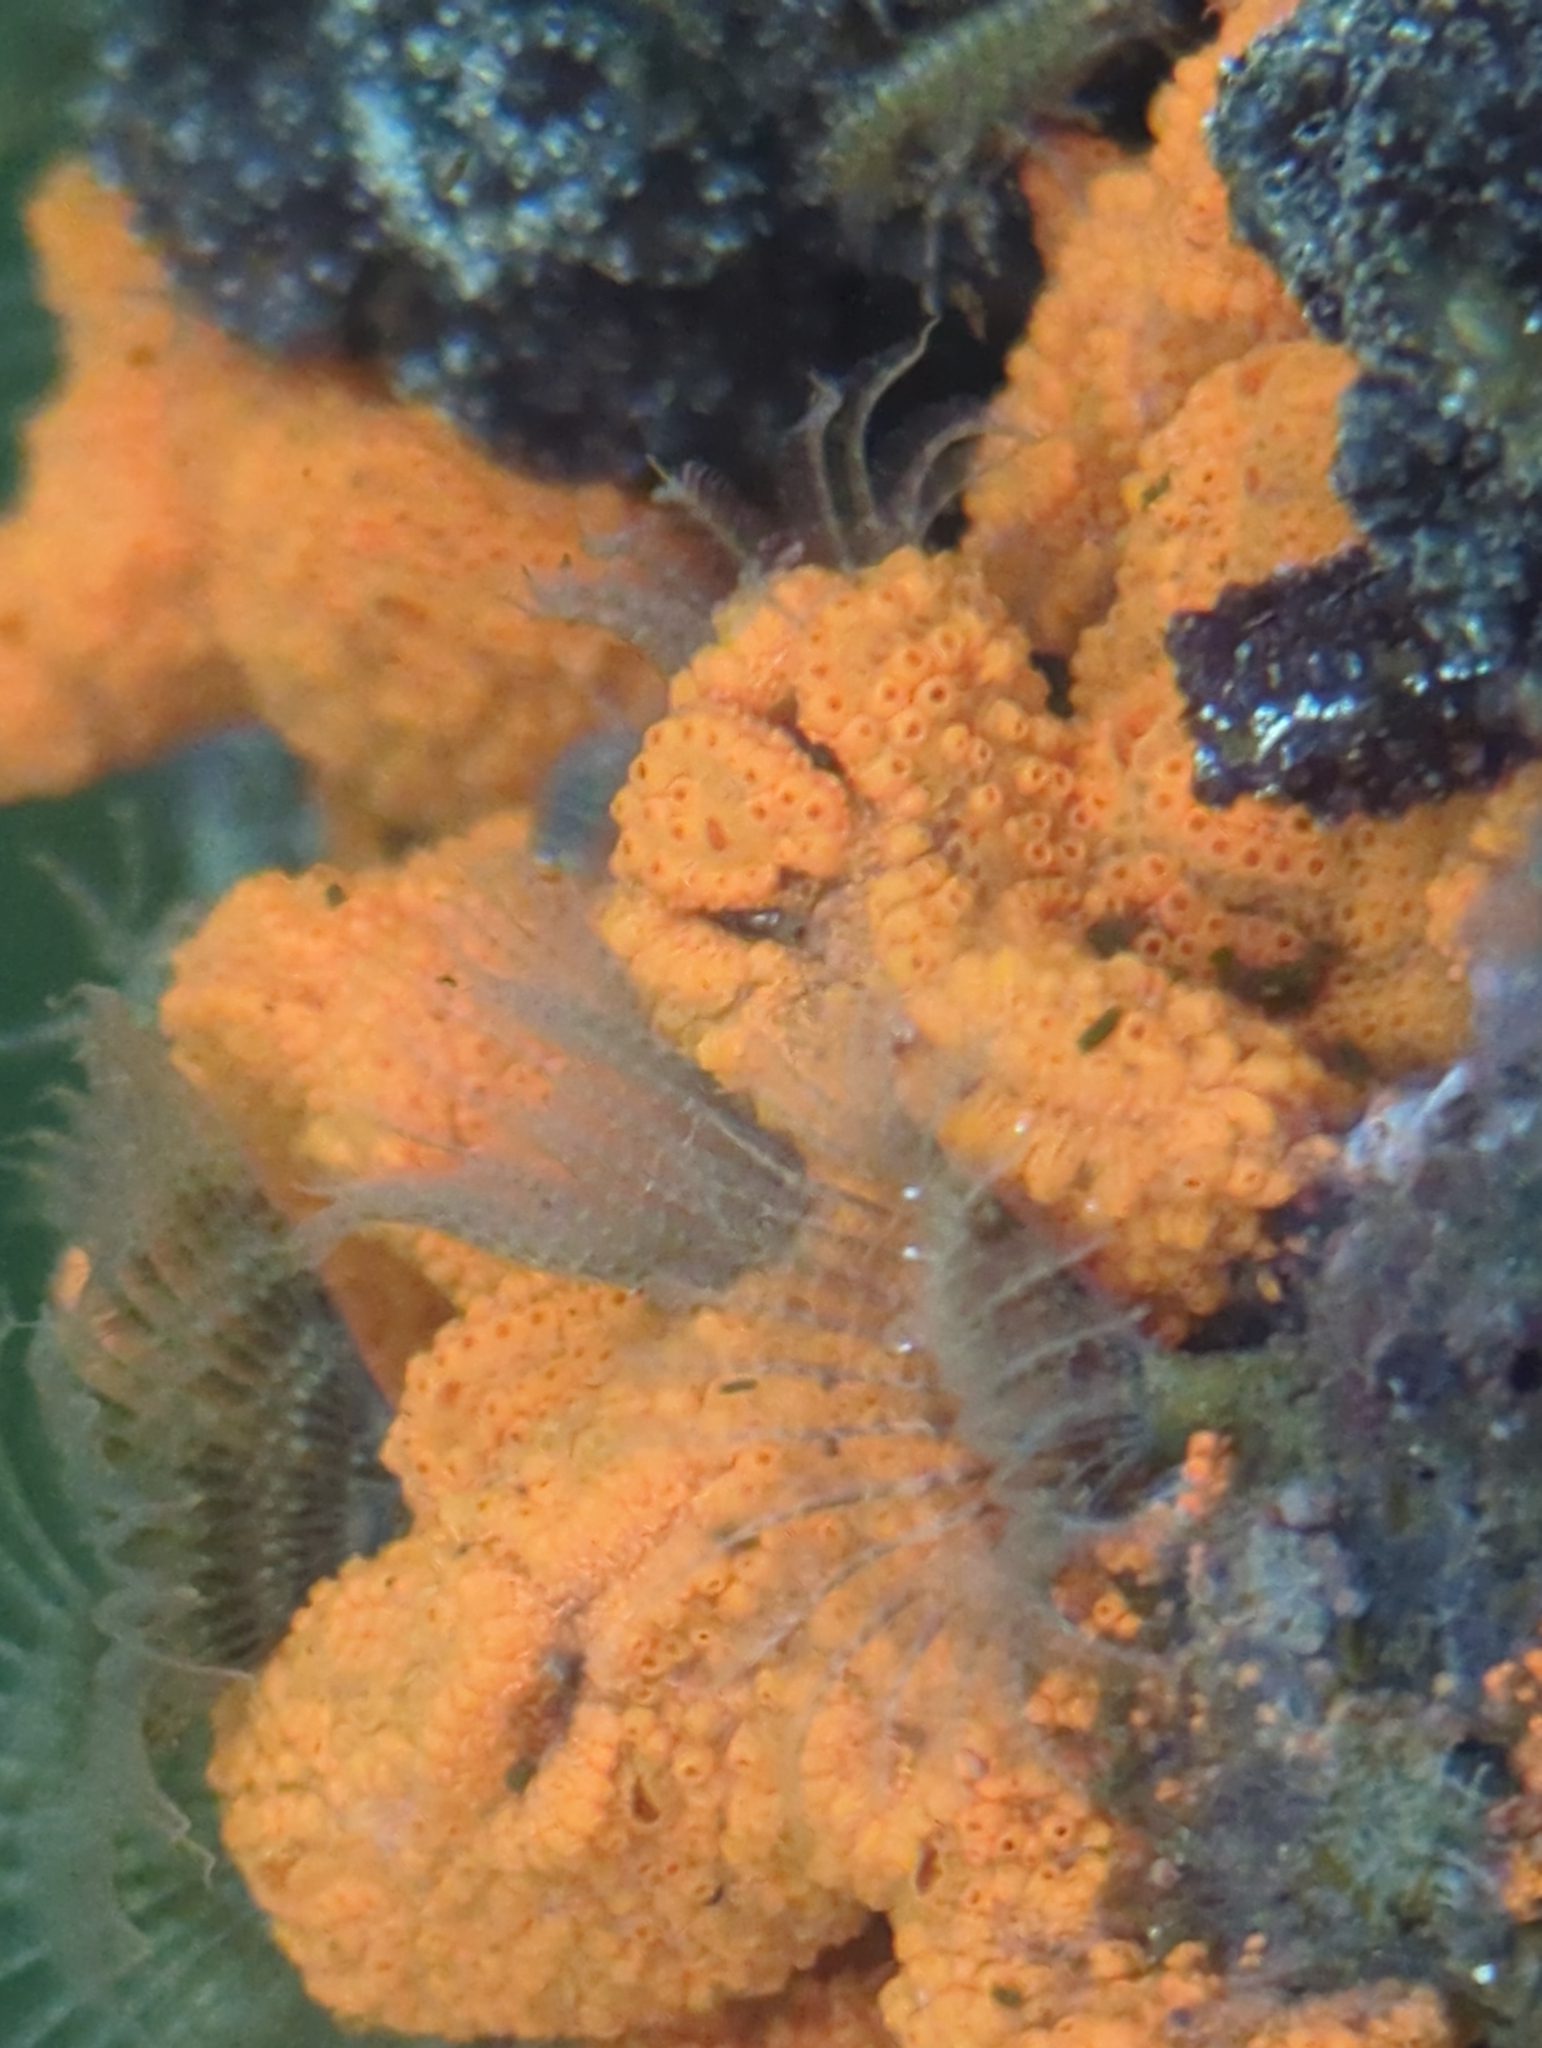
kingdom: Animalia
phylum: Chordata
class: Ascidiacea
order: Stolidobranchia
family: Styelidae
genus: Botrylloides
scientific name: Botrylloides violaceus
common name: Colonial sea squirt
